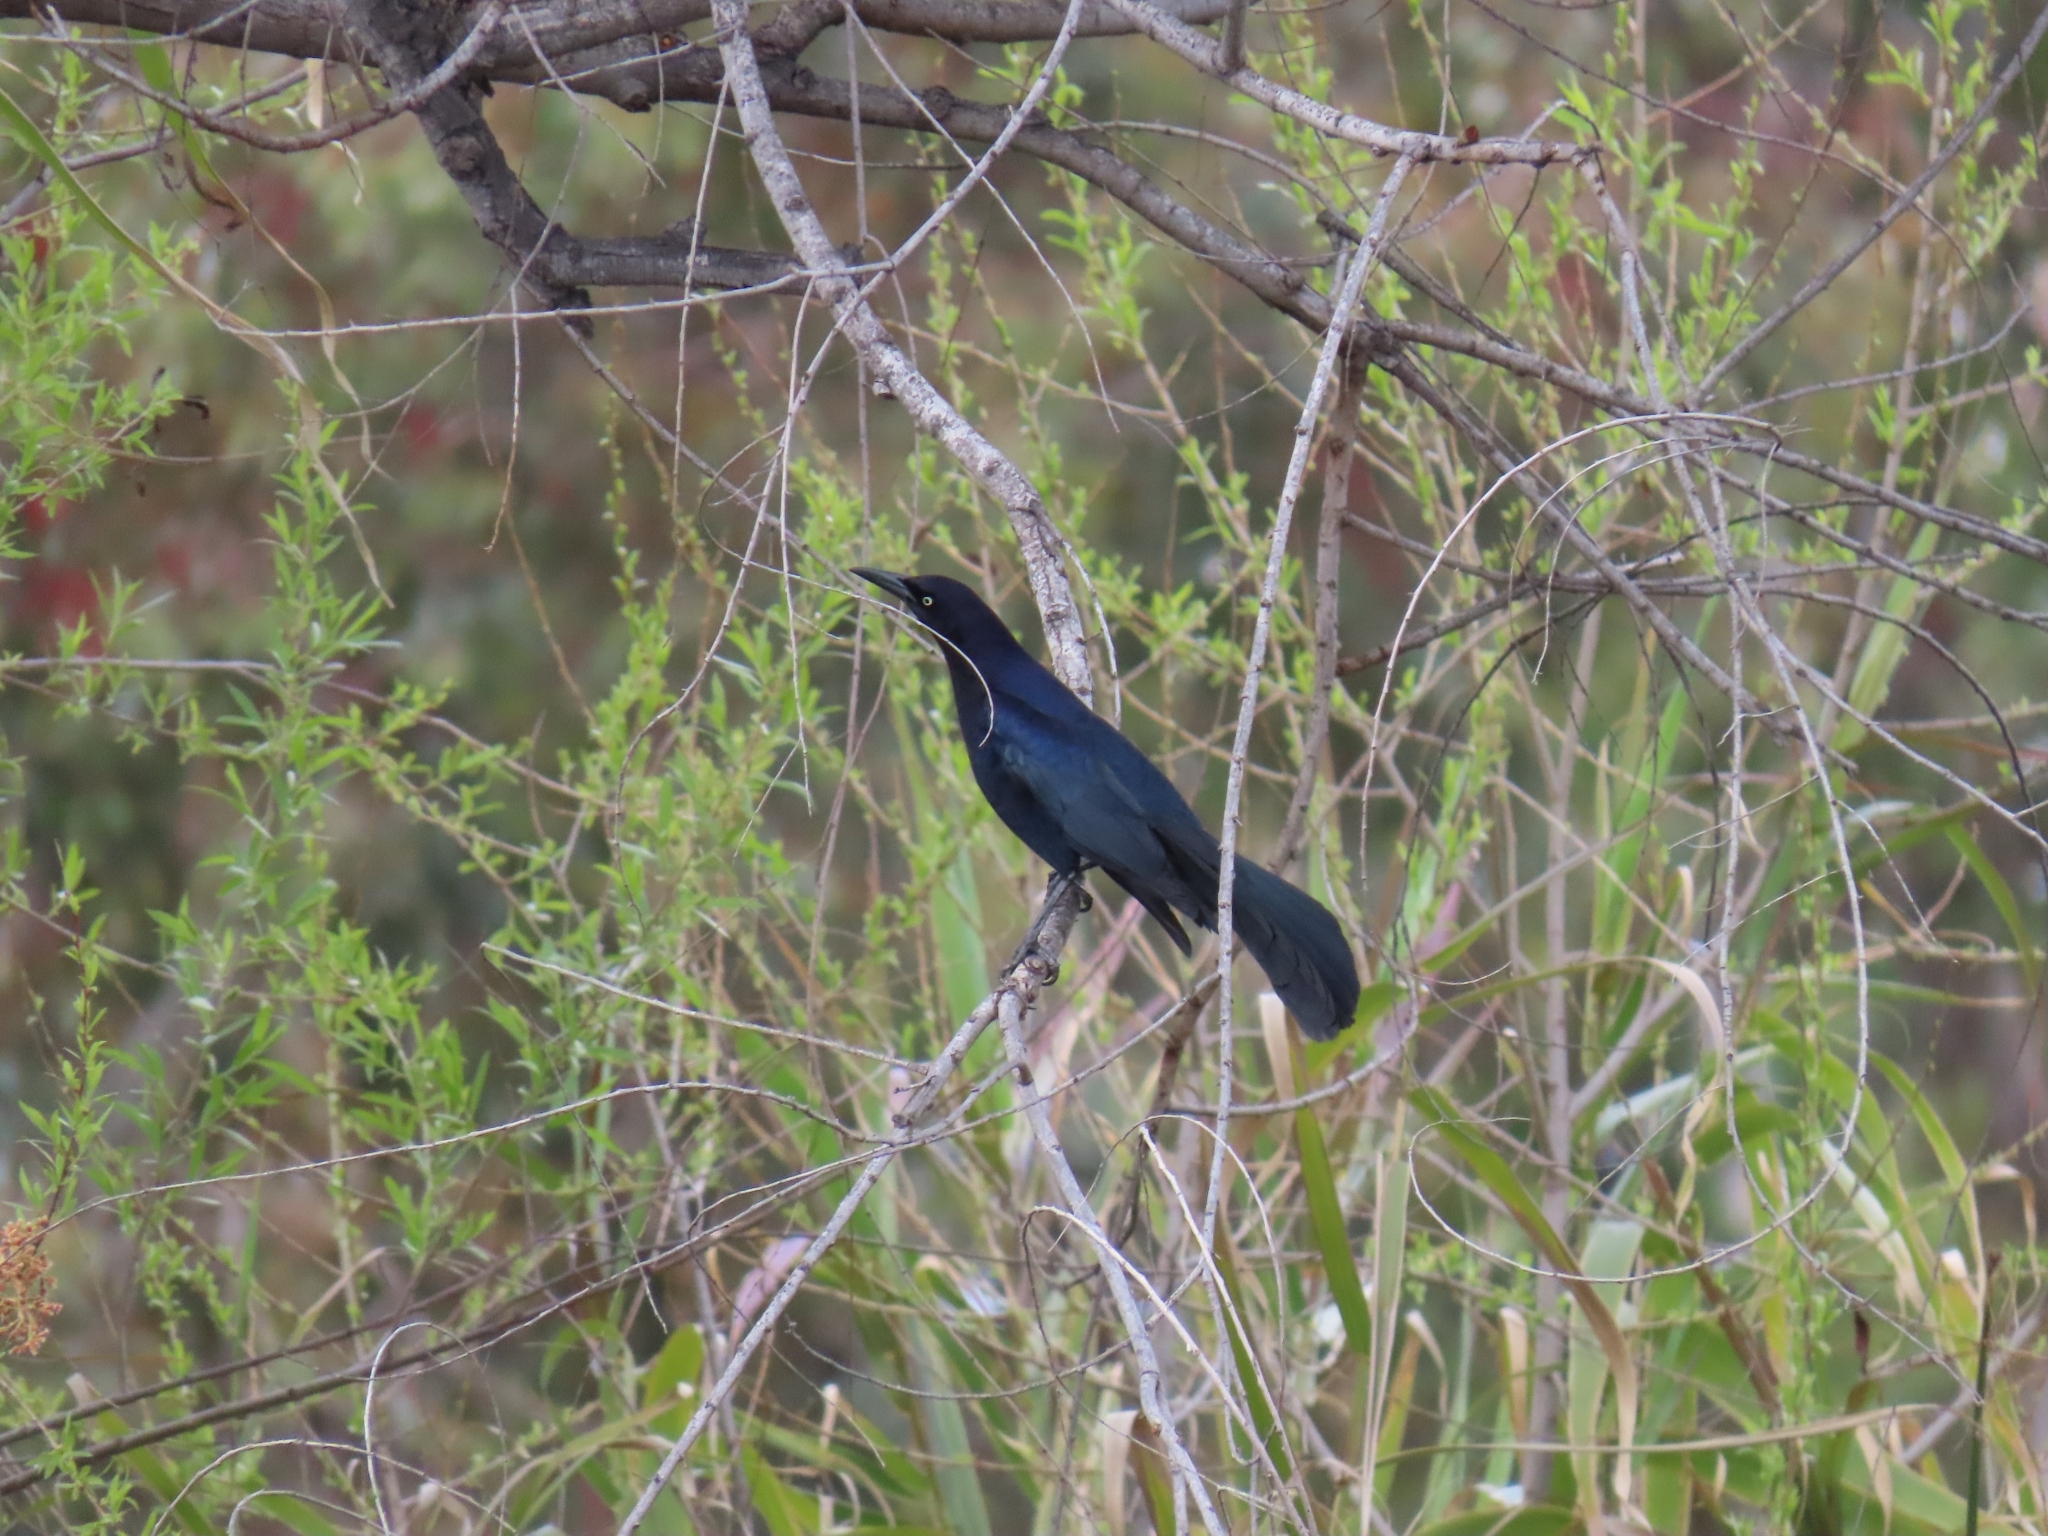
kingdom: Animalia
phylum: Chordata
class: Aves
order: Passeriformes
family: Icteridae
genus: Quiscalus
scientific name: Quiscalus mexicanus
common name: Great-tailed grackle
